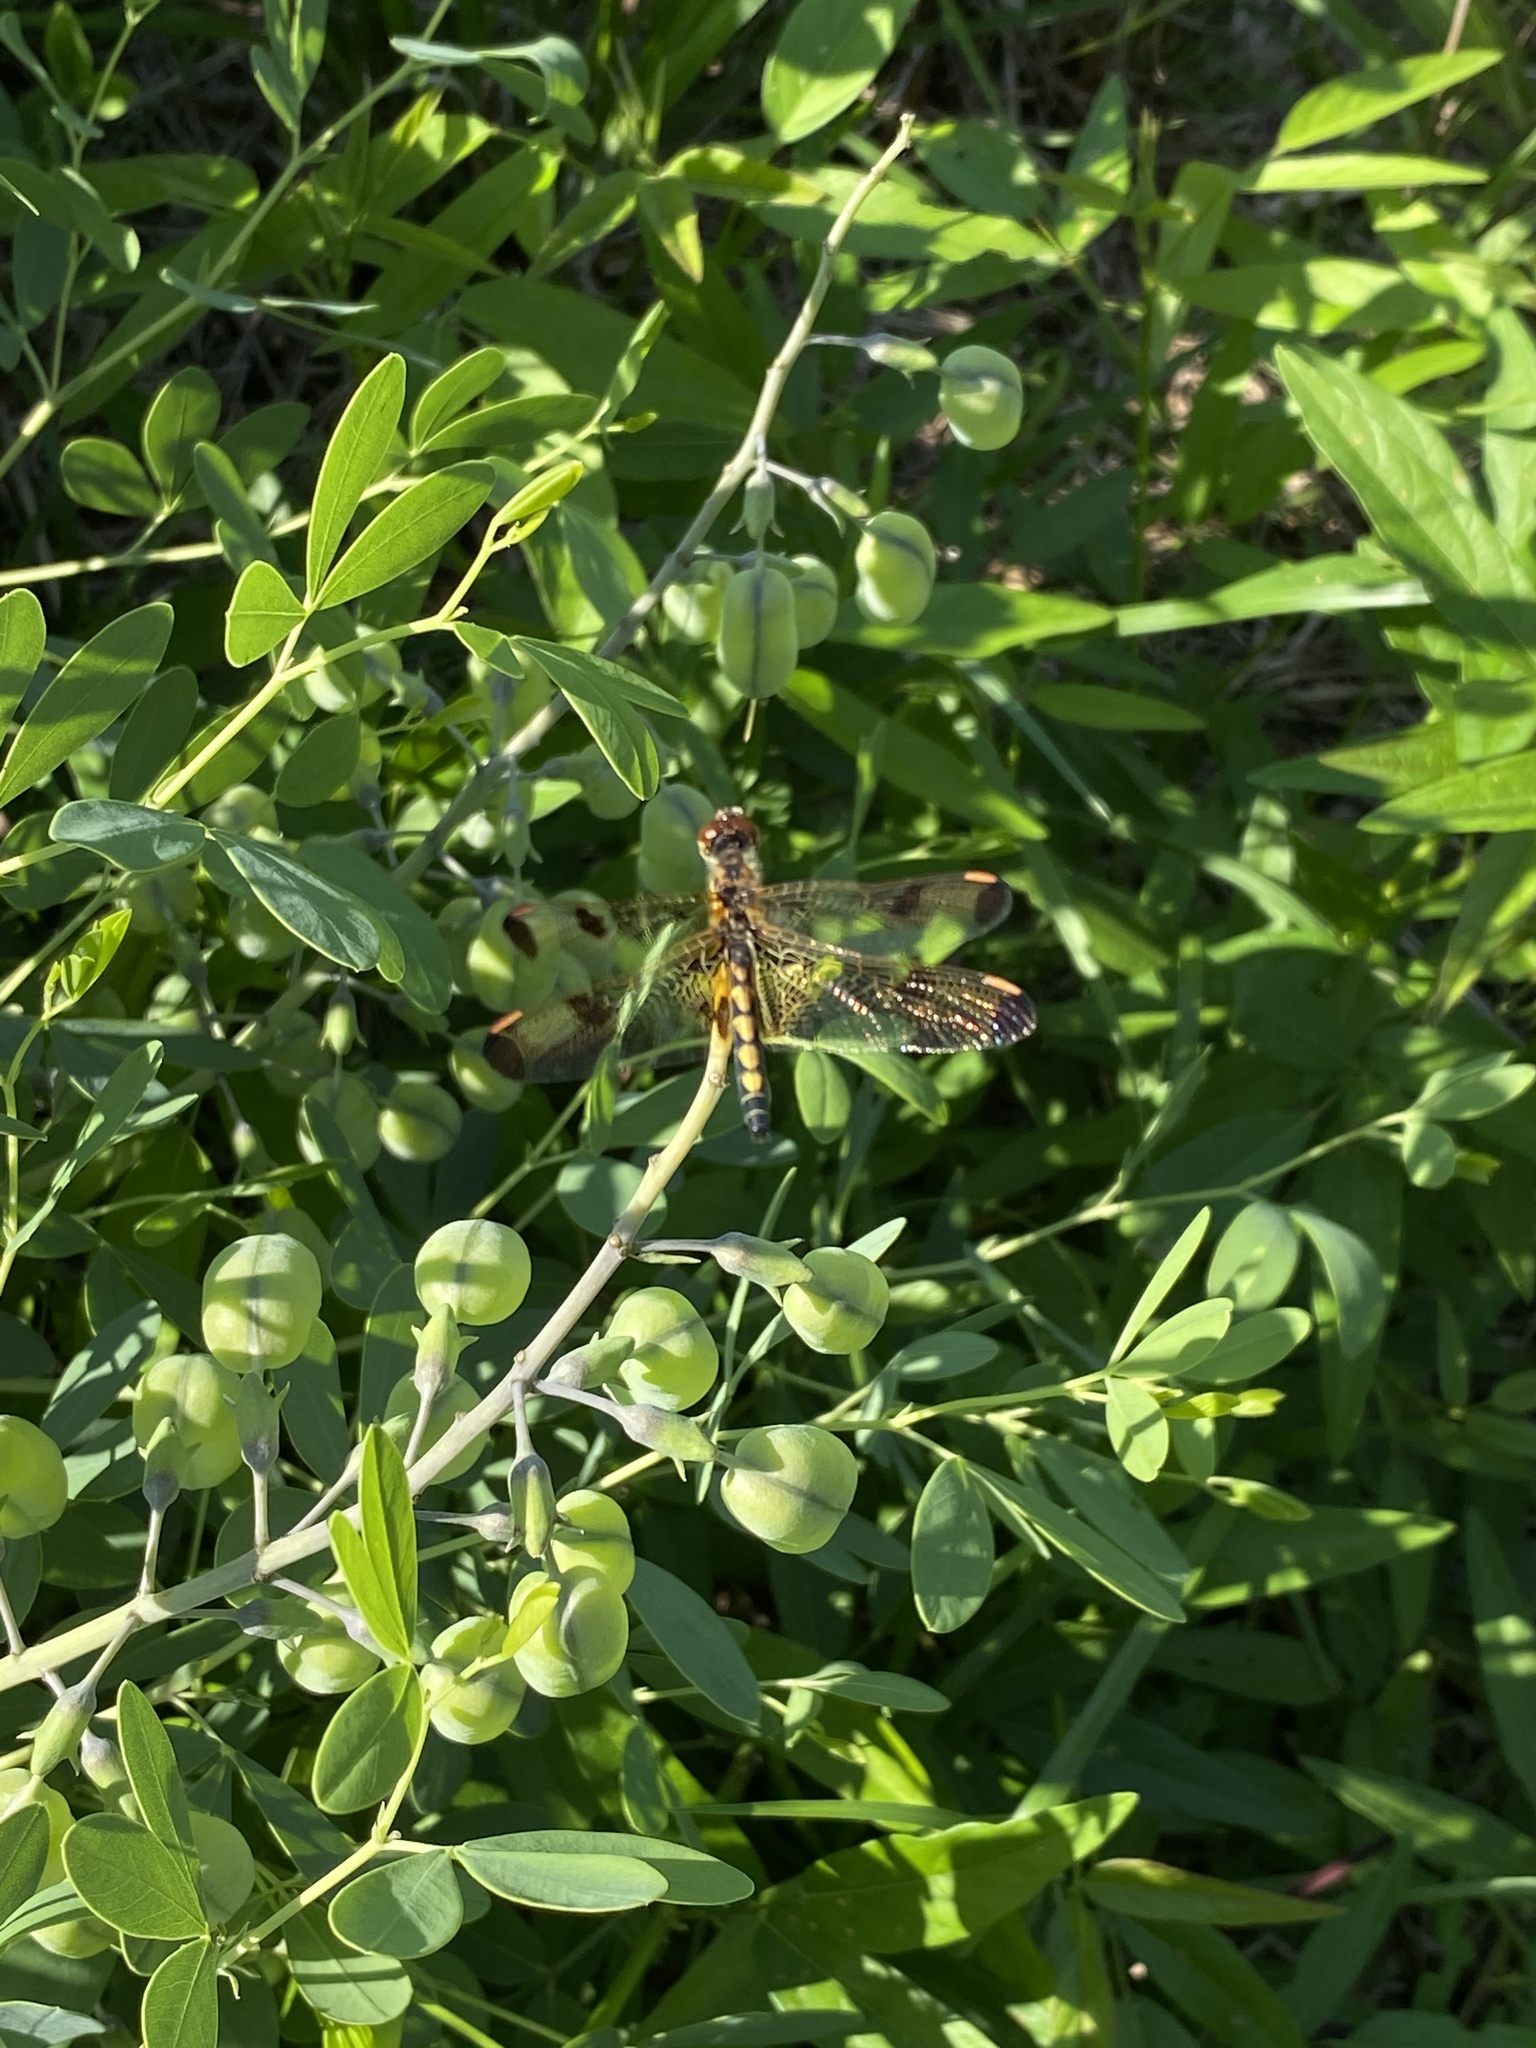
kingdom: Animalia
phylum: Arthropoda
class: Insecta
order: Odonata
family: Libellulidae
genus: Celithemis
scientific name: Celithemis elisa
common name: Calico pennant
